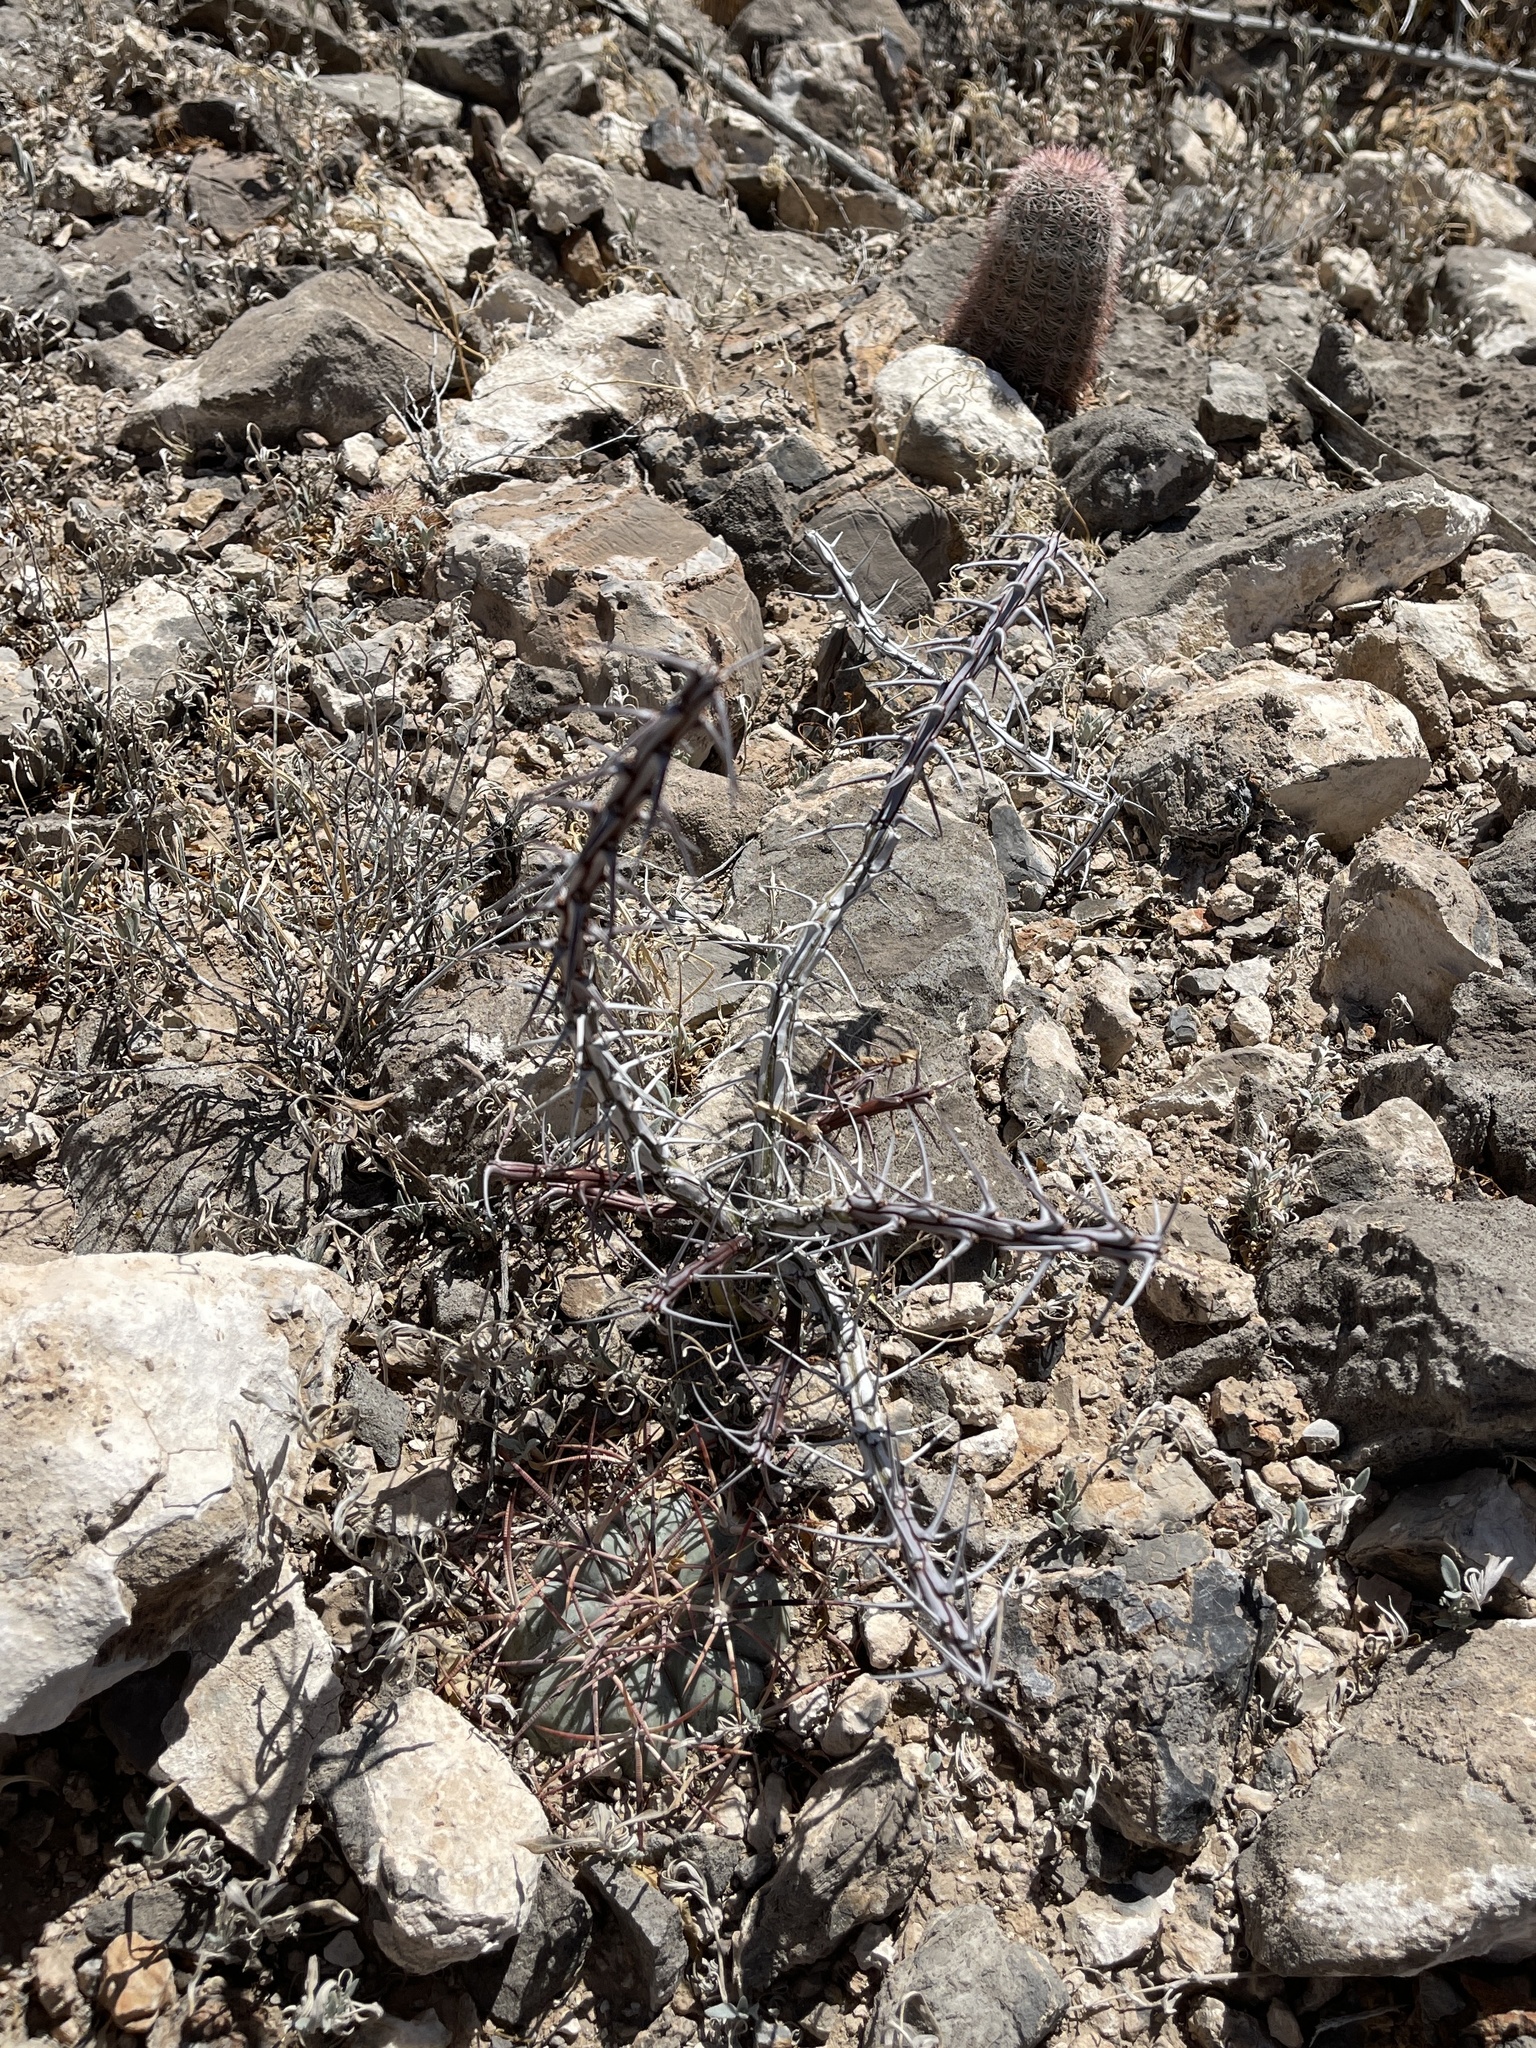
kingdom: Plantae
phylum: Tracheophyta
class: Magnoliopsida
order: Ericales
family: Fouquieriaceae
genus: Fouquieria
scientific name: Fouquieria splendens
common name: Vine-cactus
